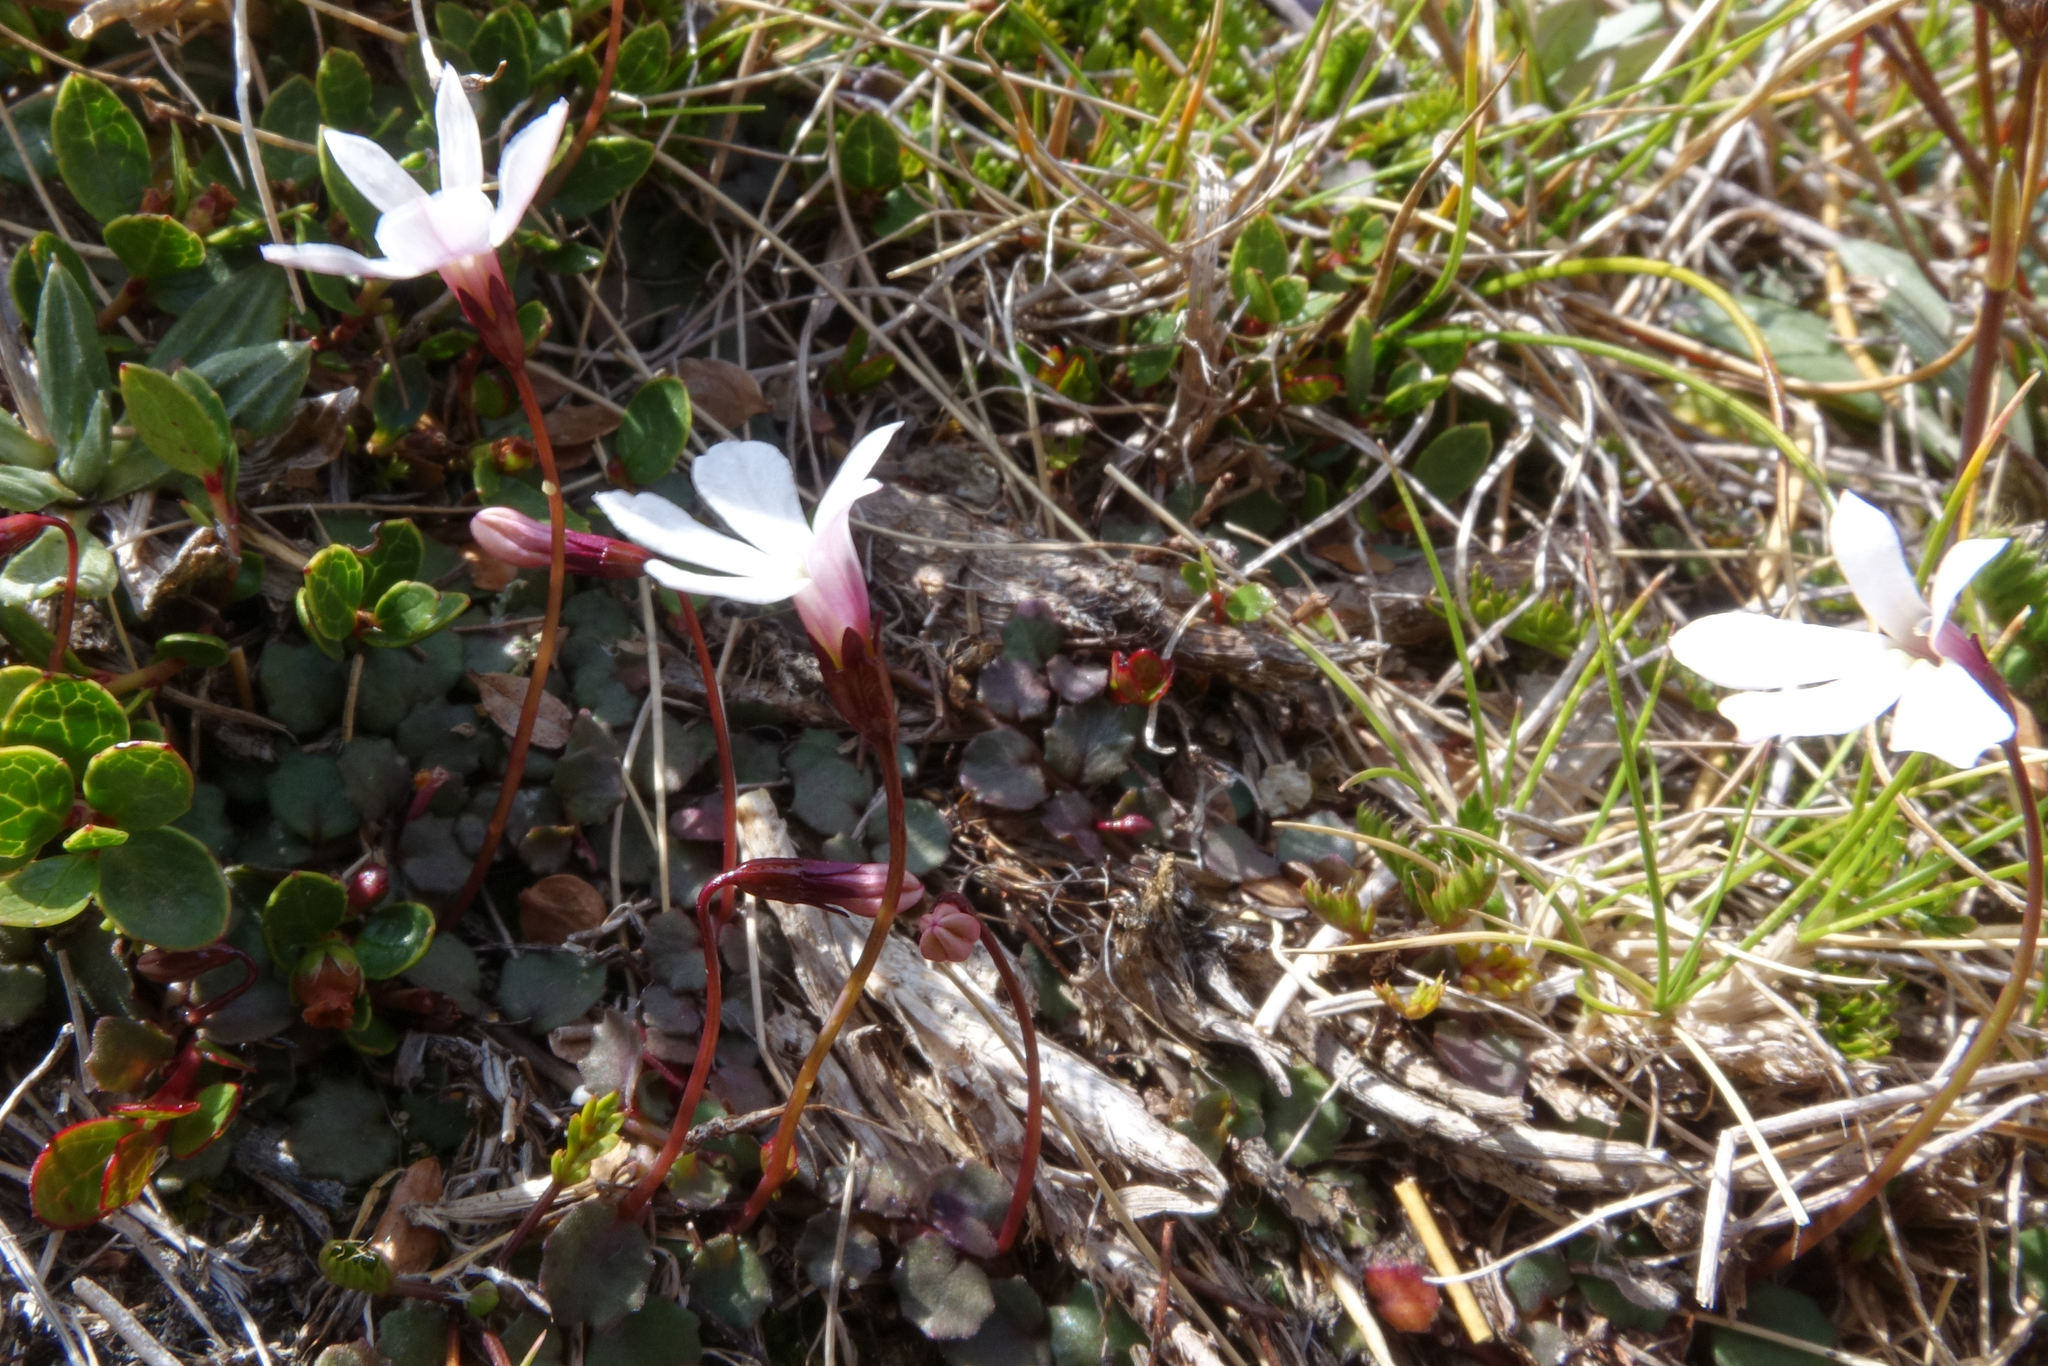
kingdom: Plantae
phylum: Tracheophyta
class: Magnoliopsida
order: Asterales
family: Campanulaceae
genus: Lobelia
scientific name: Lobelia angulata
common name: Lawn lobelia
